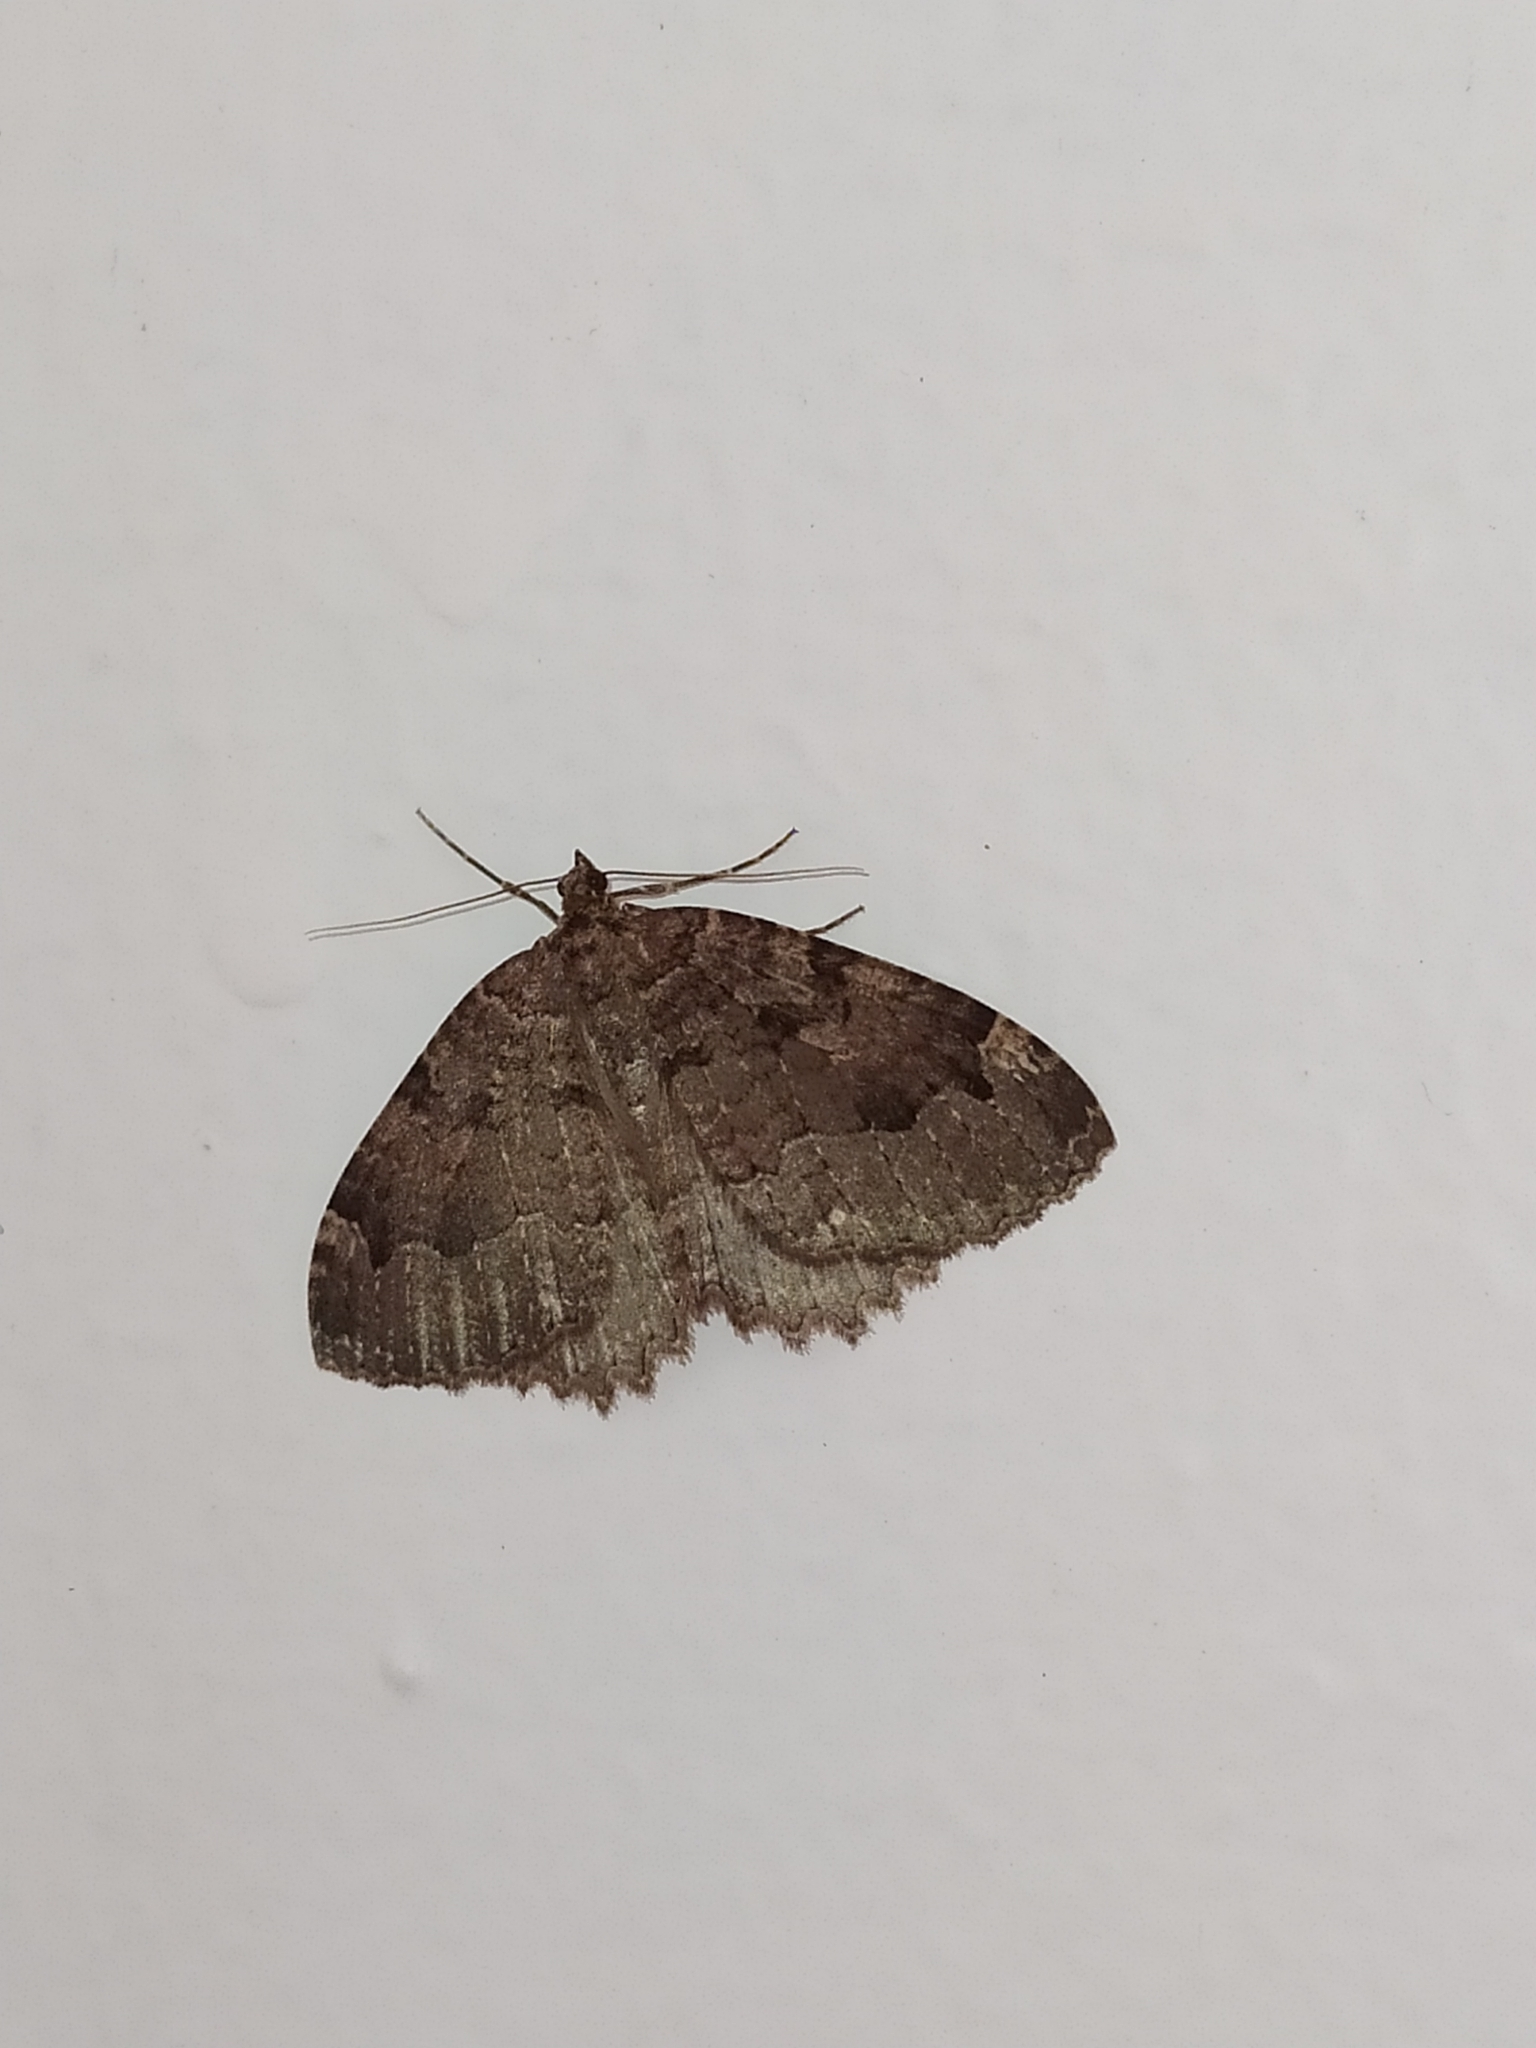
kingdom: Animalia
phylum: Arthropoda
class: Insecta
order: Lepidoptera
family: Geometridae
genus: Triphosa
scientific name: Triphosa dubitata
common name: Tissue
